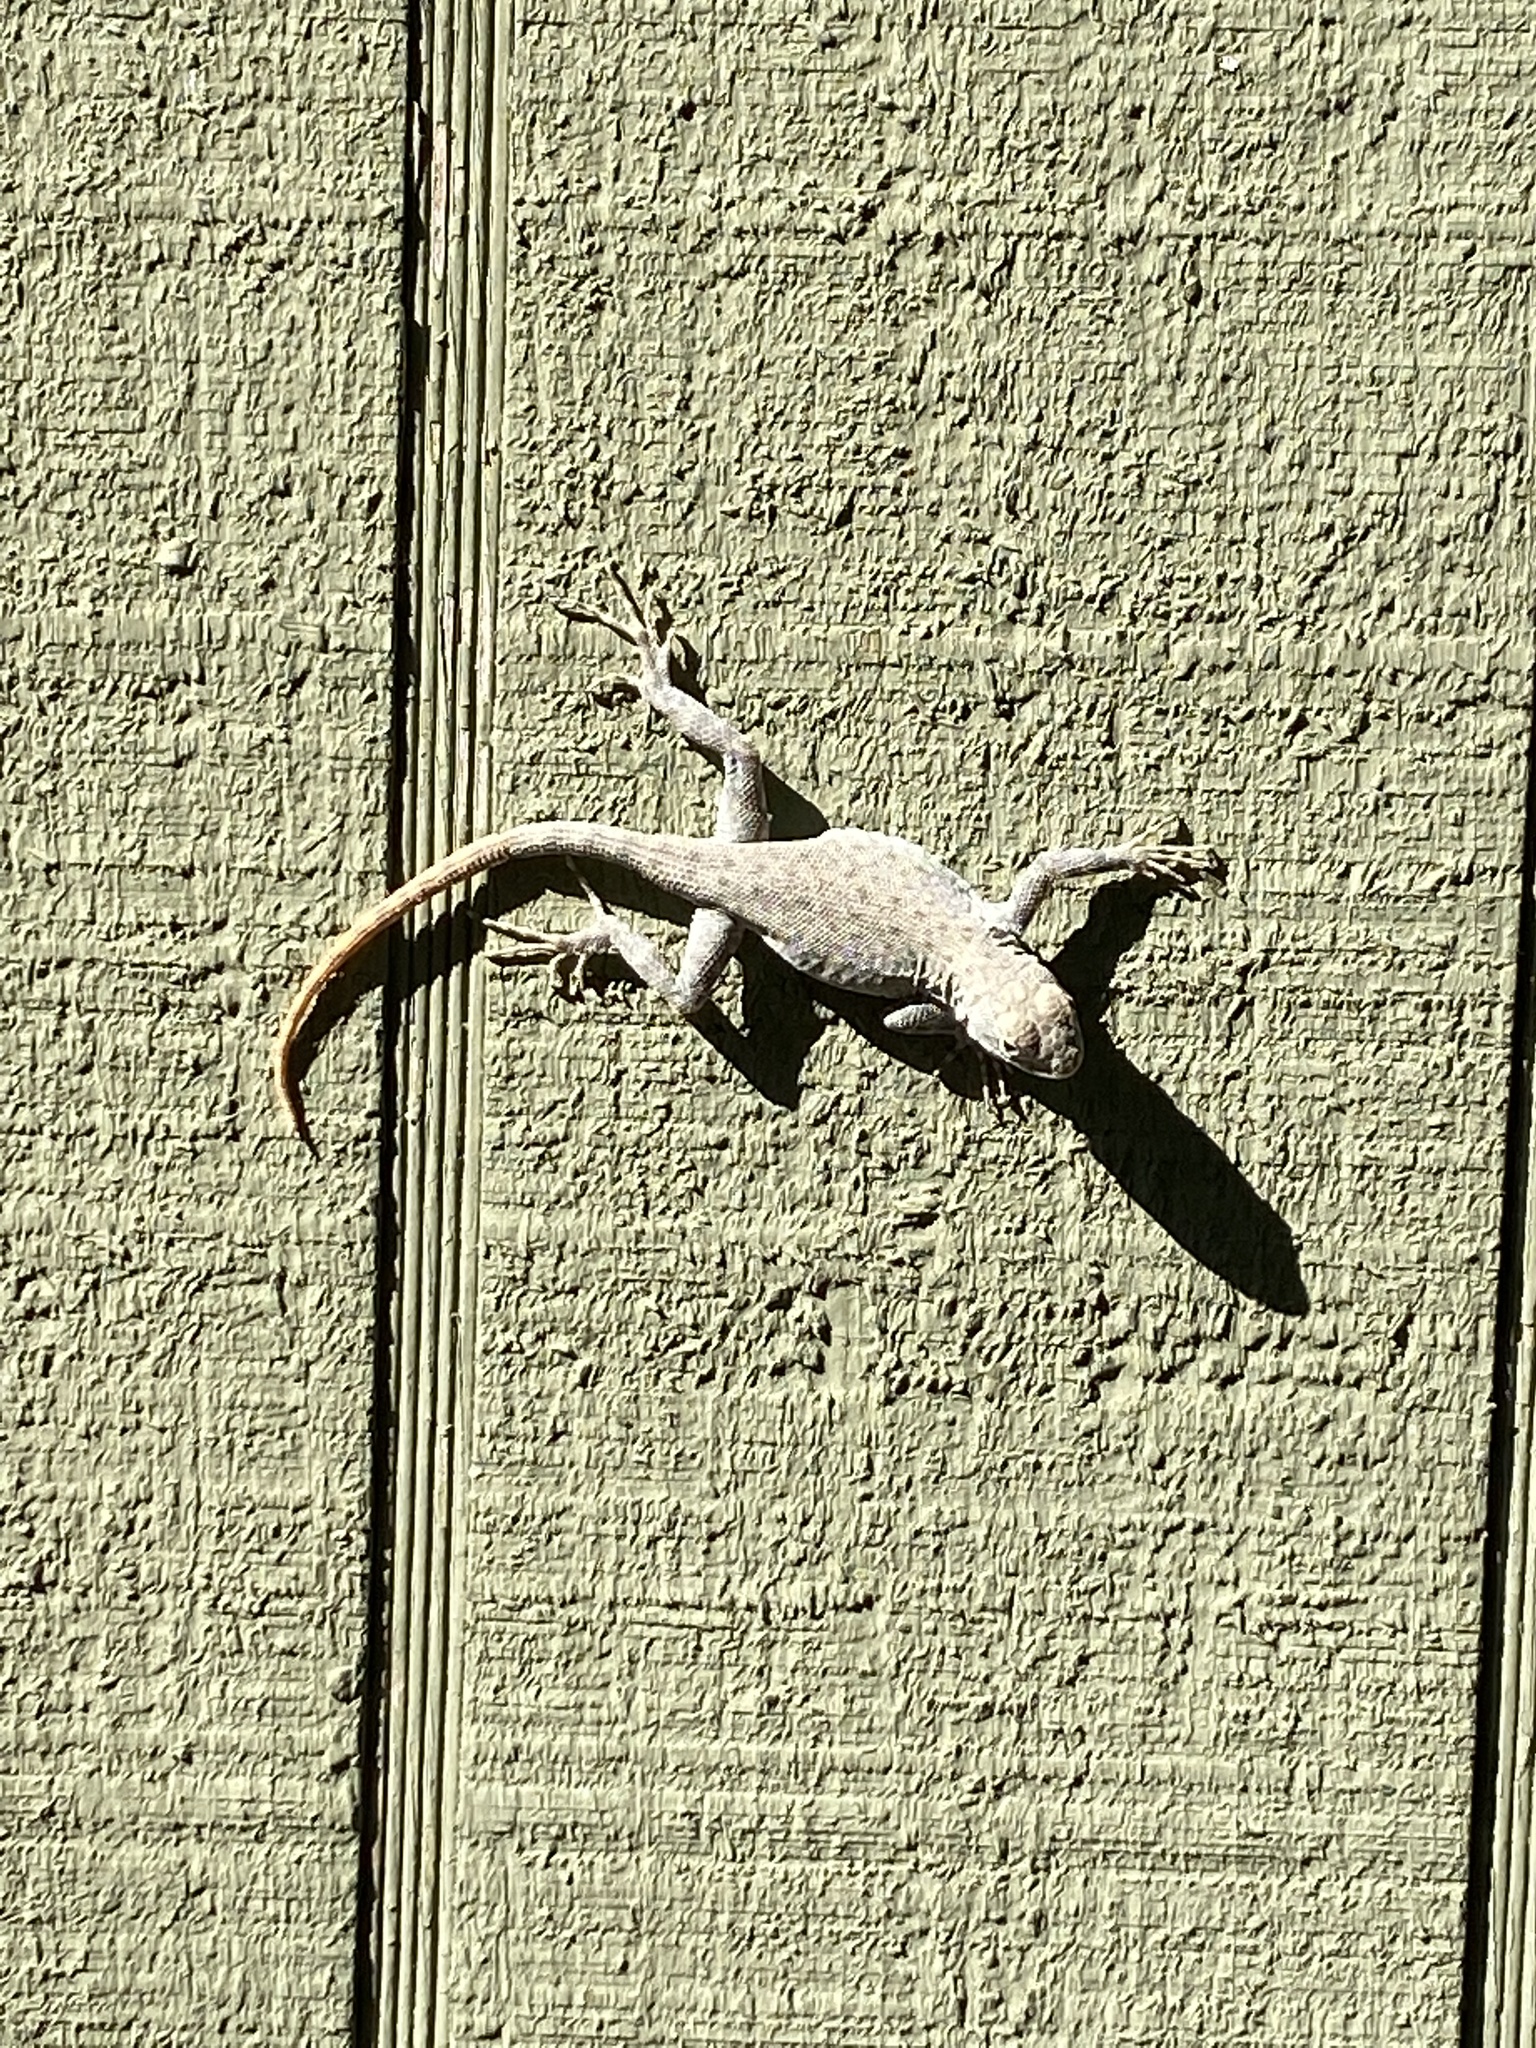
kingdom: Animalia
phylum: Chordata
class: Squamata
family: Phrynosomatidae
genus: Sceloporus
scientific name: Sceloporus merriami
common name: Canyon lizard
